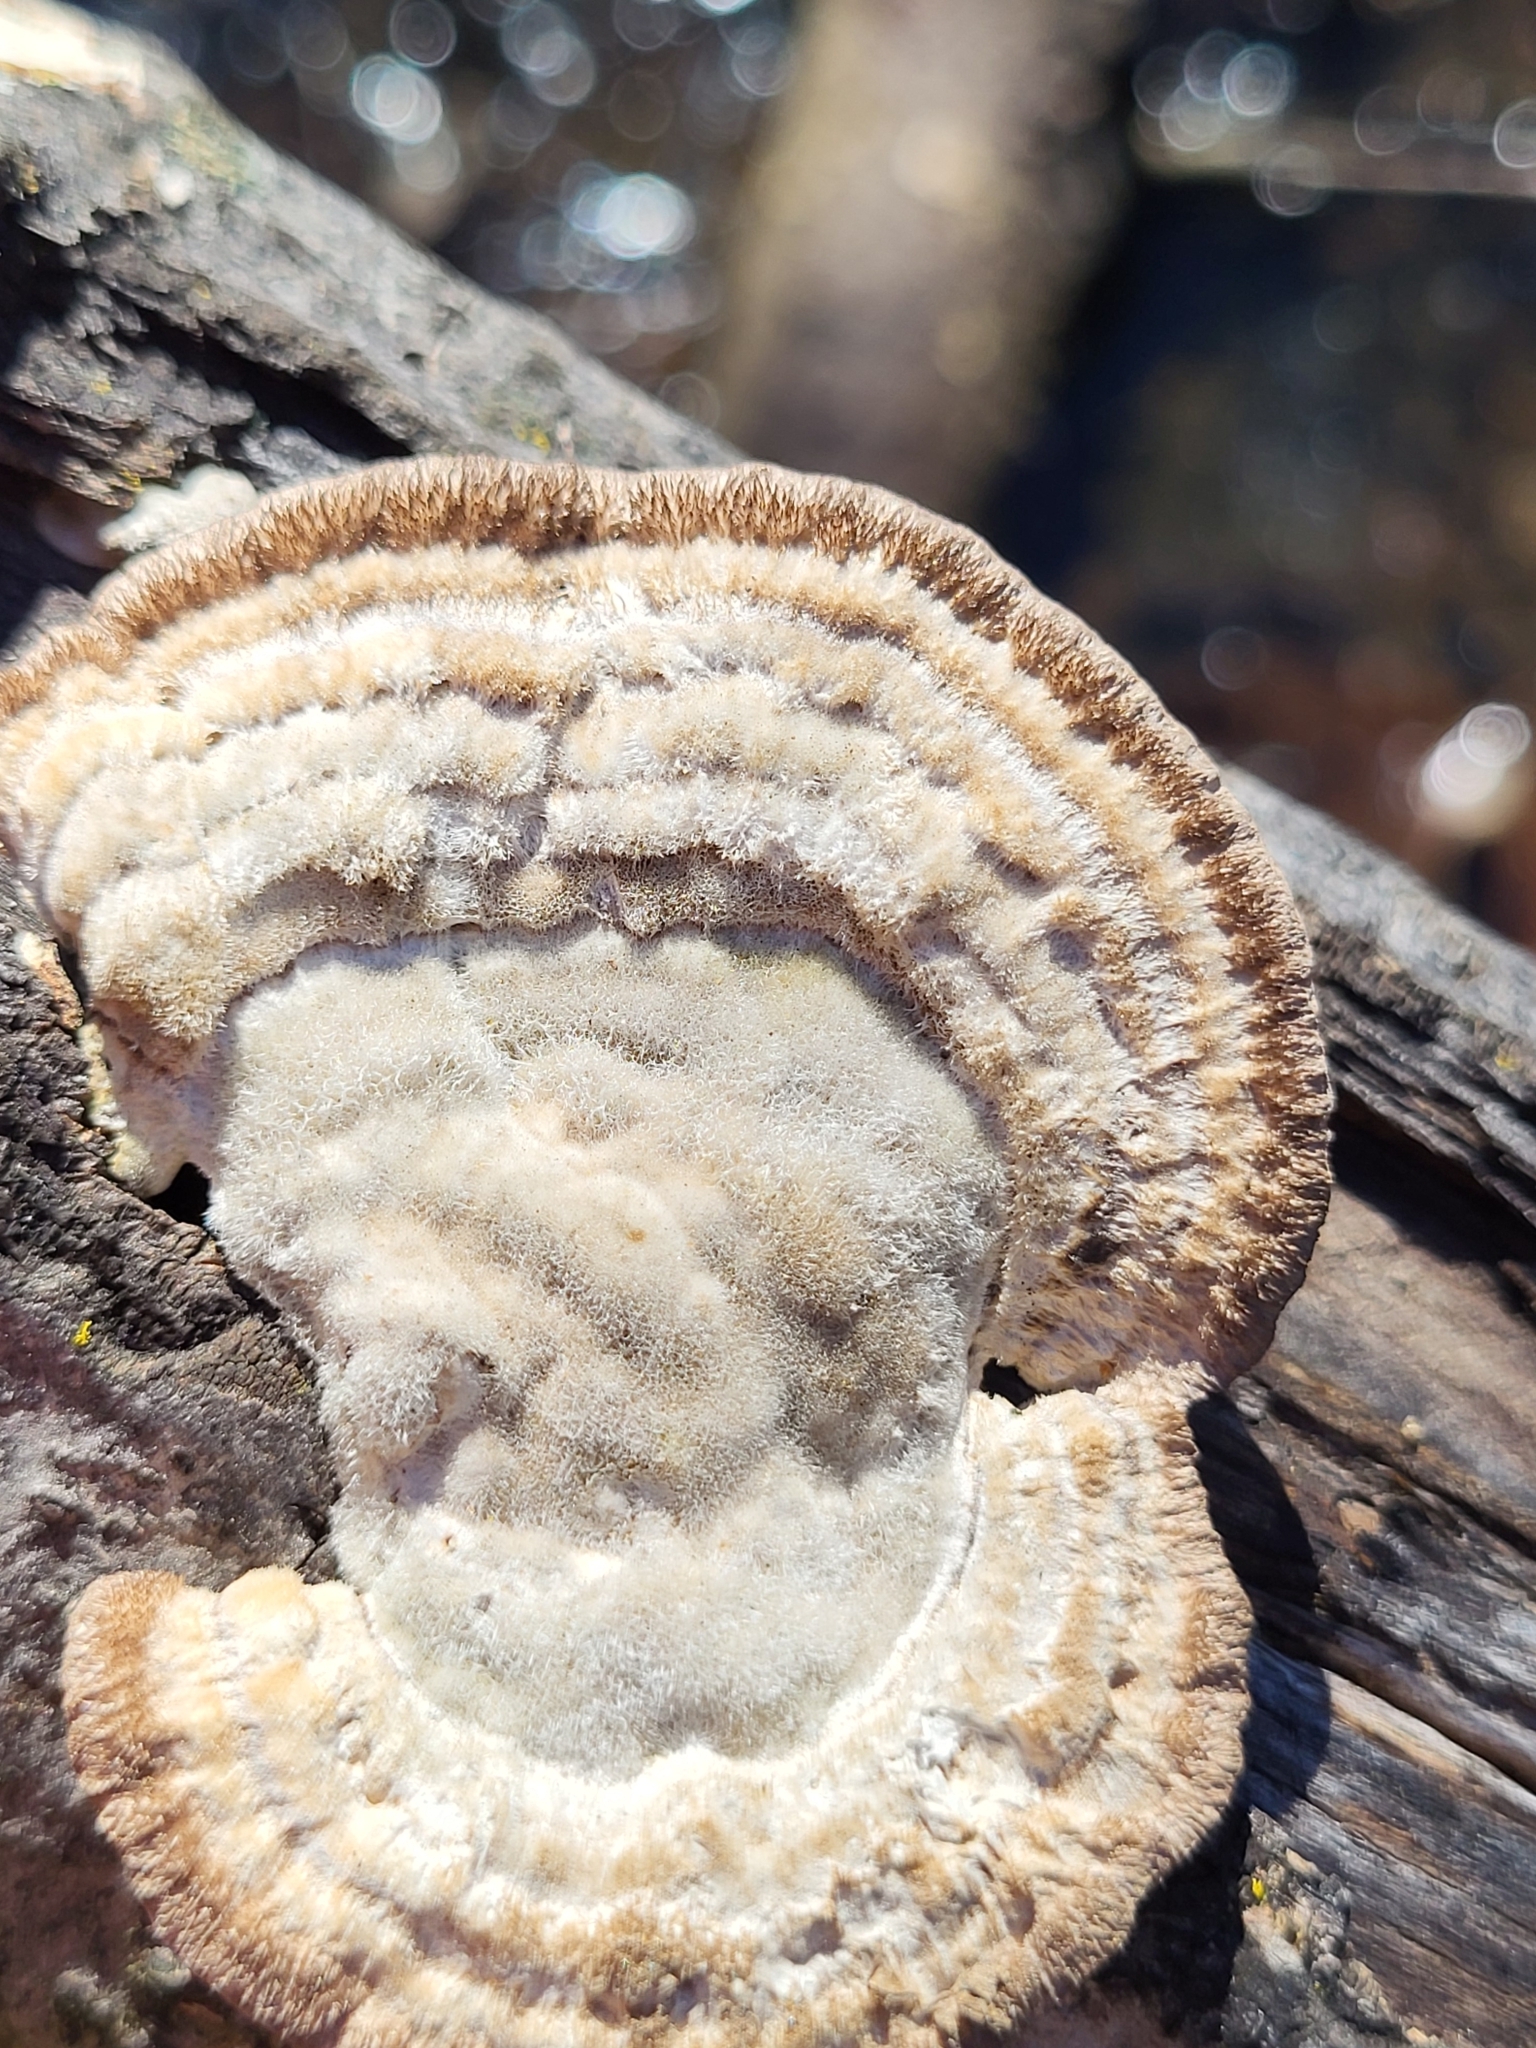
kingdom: Fungi
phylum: Basidiomycota
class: Agaricomycetes
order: Polyporales
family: Polyporaceae
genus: Trametes
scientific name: Trametes hirsuta
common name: Hairy bracket
